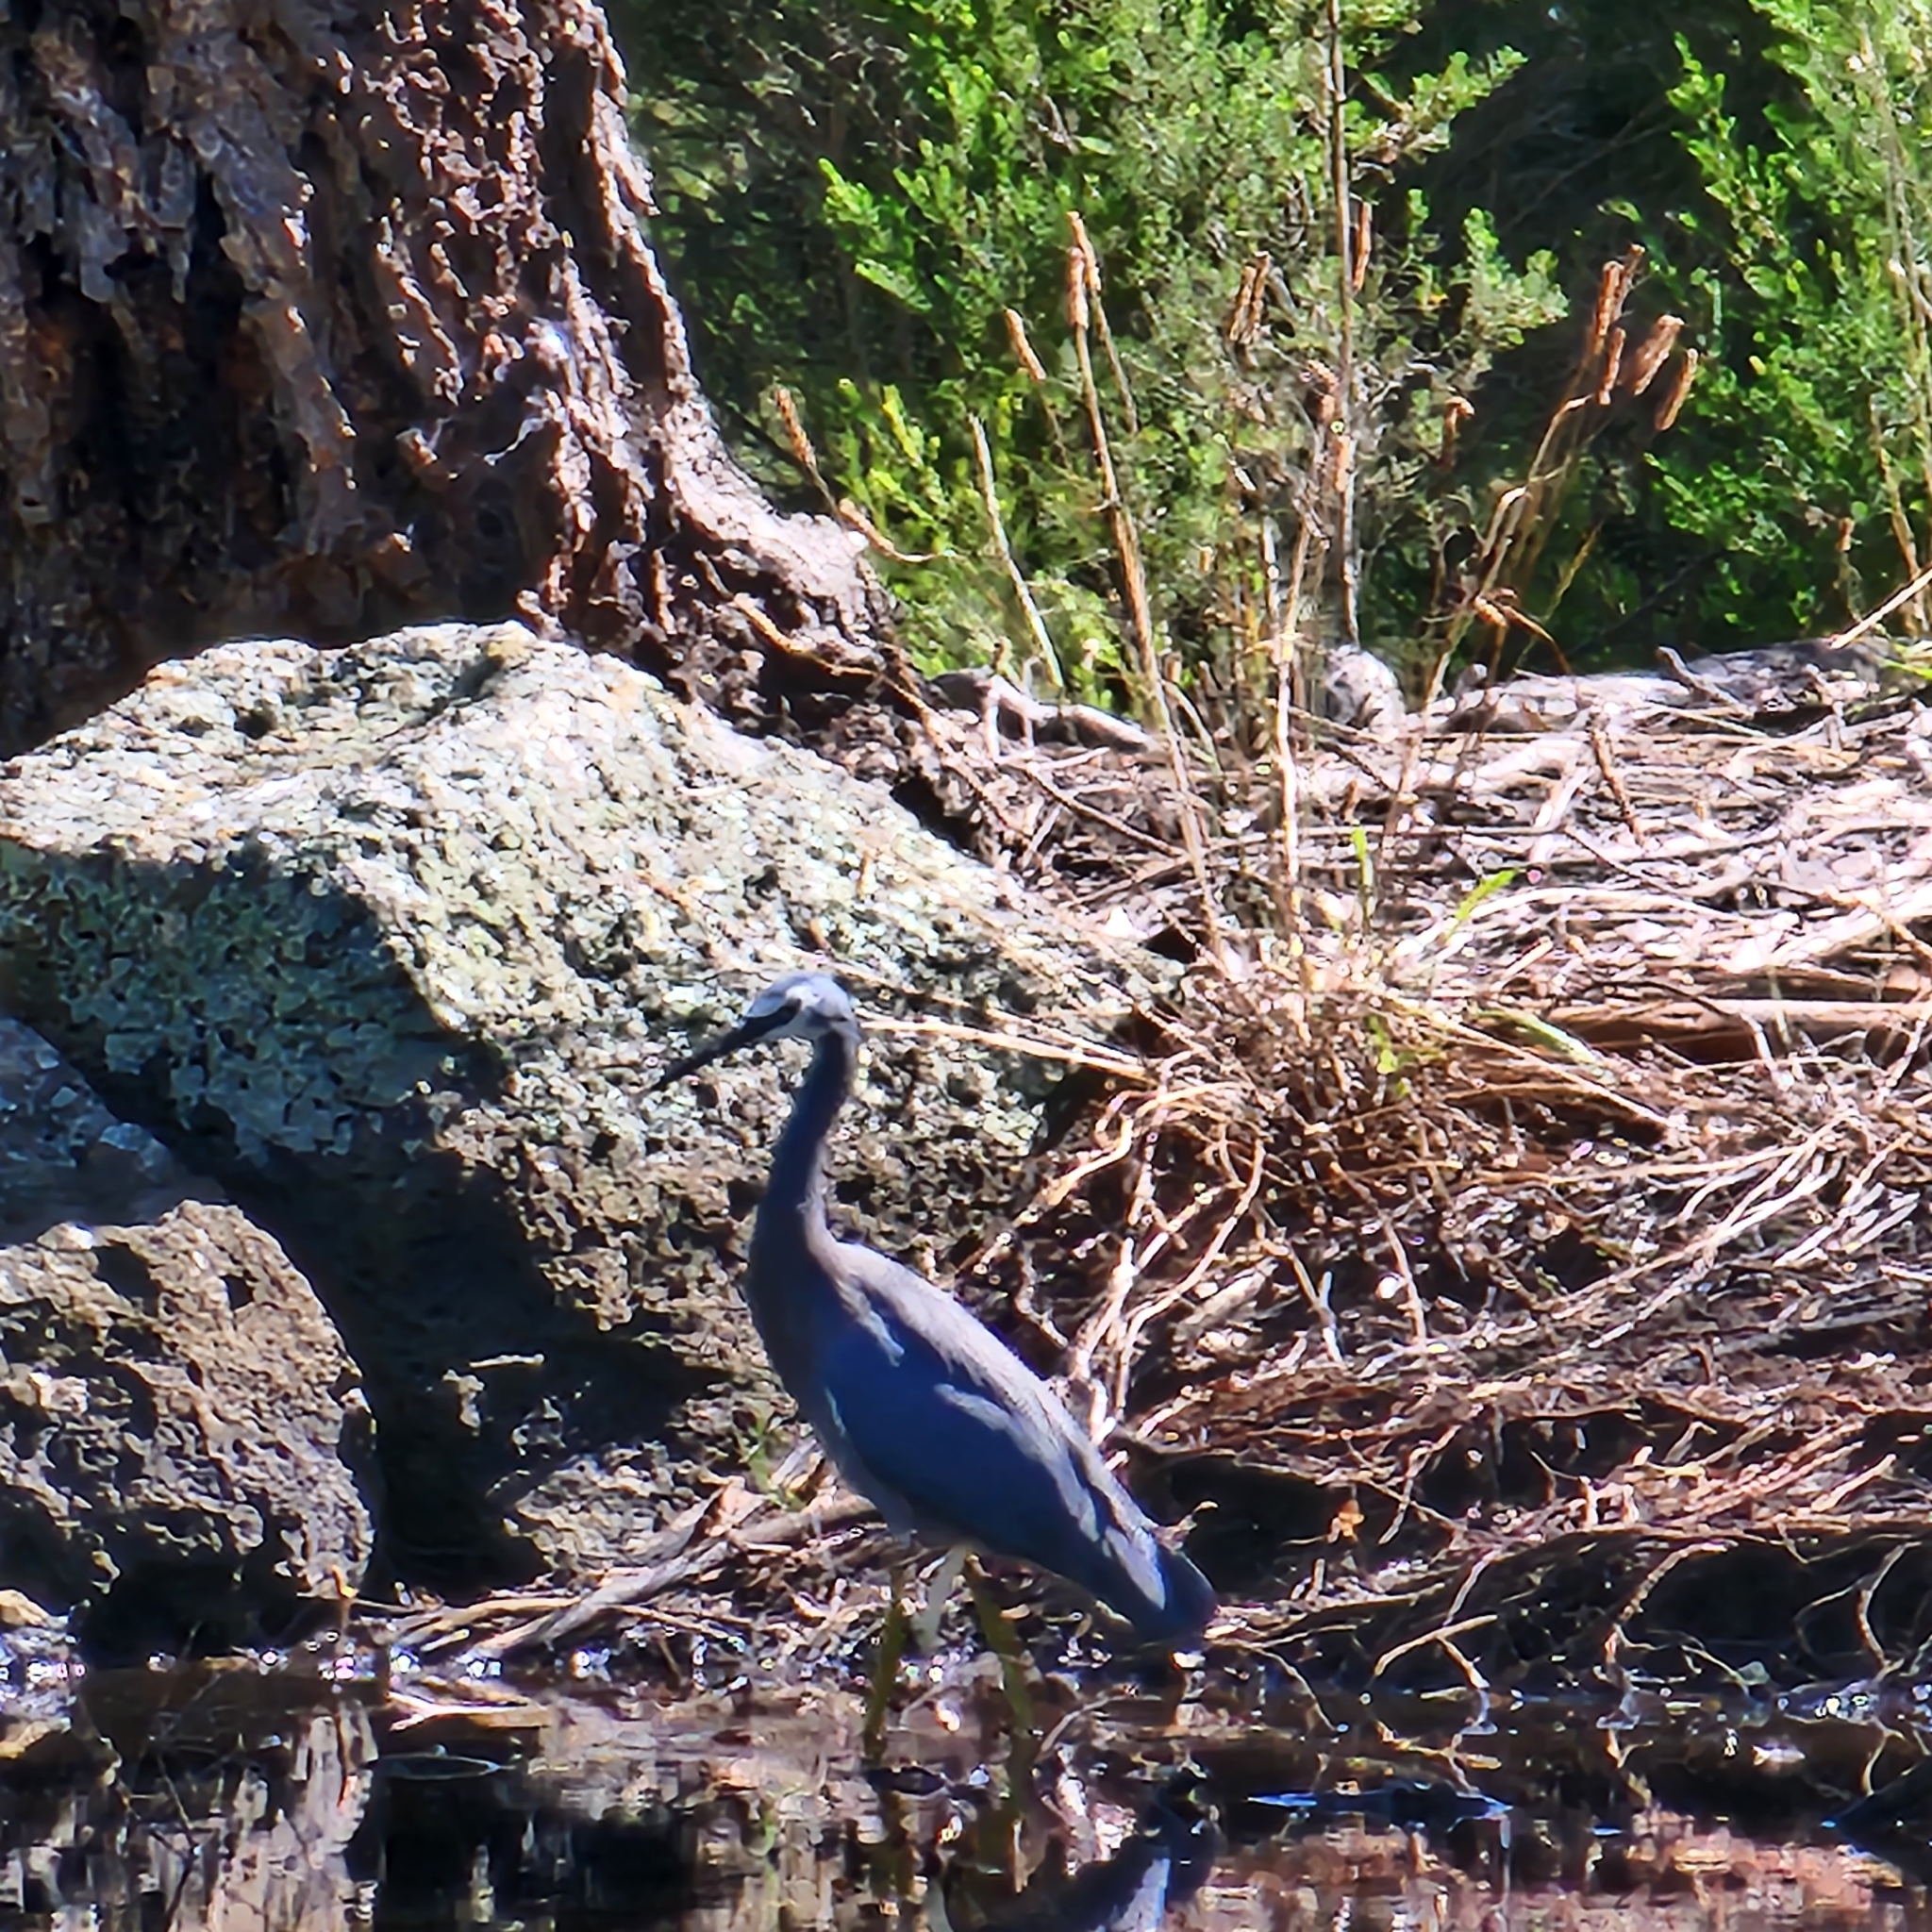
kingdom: Animalia
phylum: Chordata
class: Aves
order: Pelecaniformes
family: Ardeidae
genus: Egretta
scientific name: Egretta novaehollandiae
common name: White-faced heron
